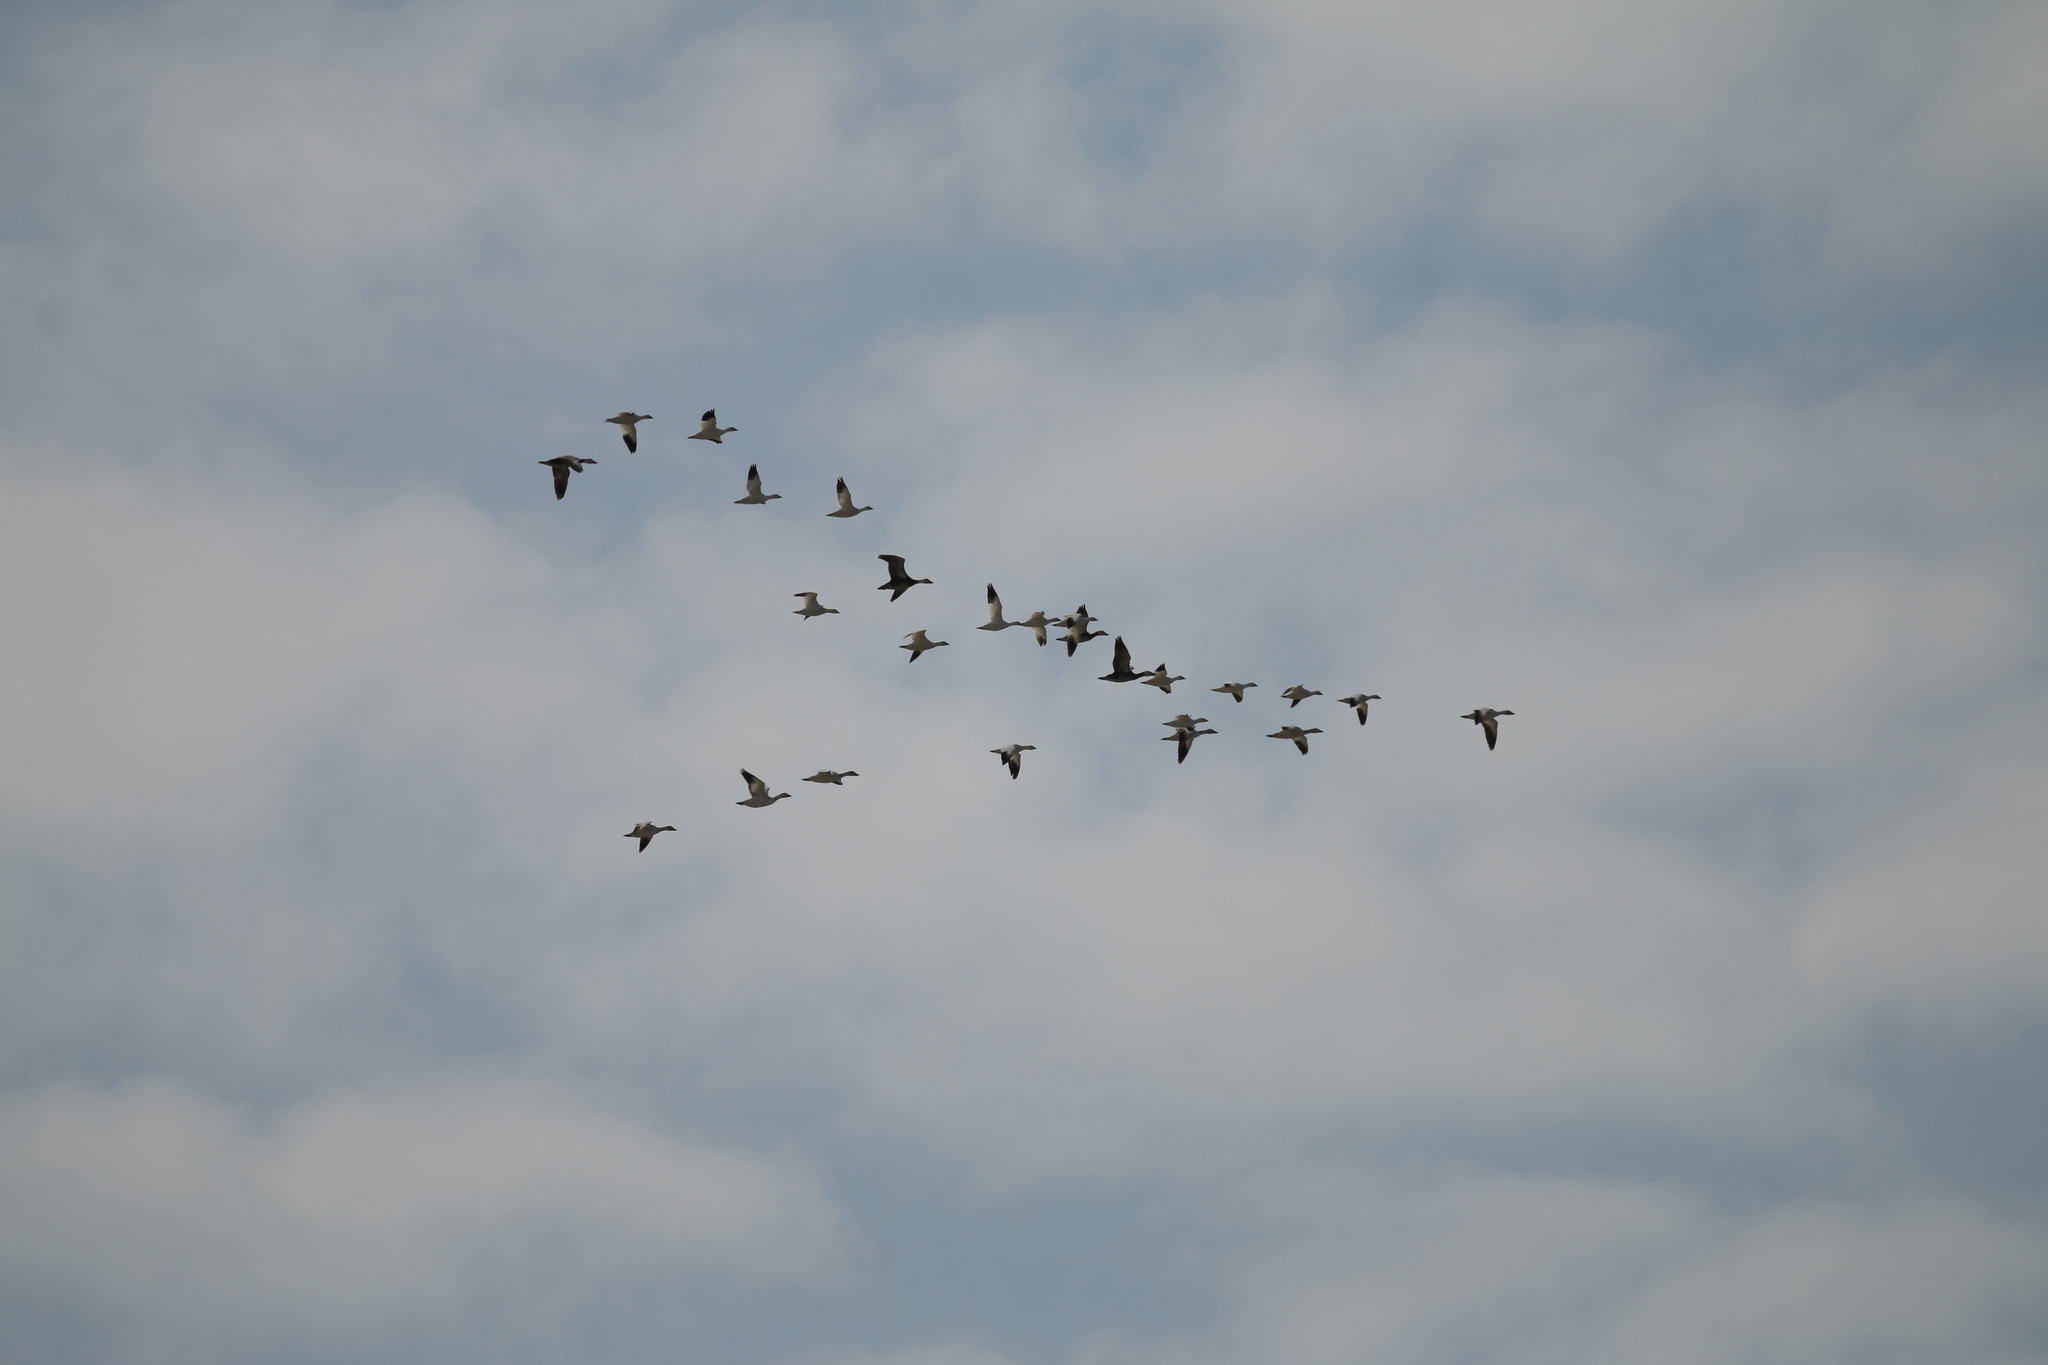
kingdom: Animalia
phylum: Chordata
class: Aves
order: Anseriformes
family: Anatidae
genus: Anser
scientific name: Anser rossii
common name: Ross's goose
